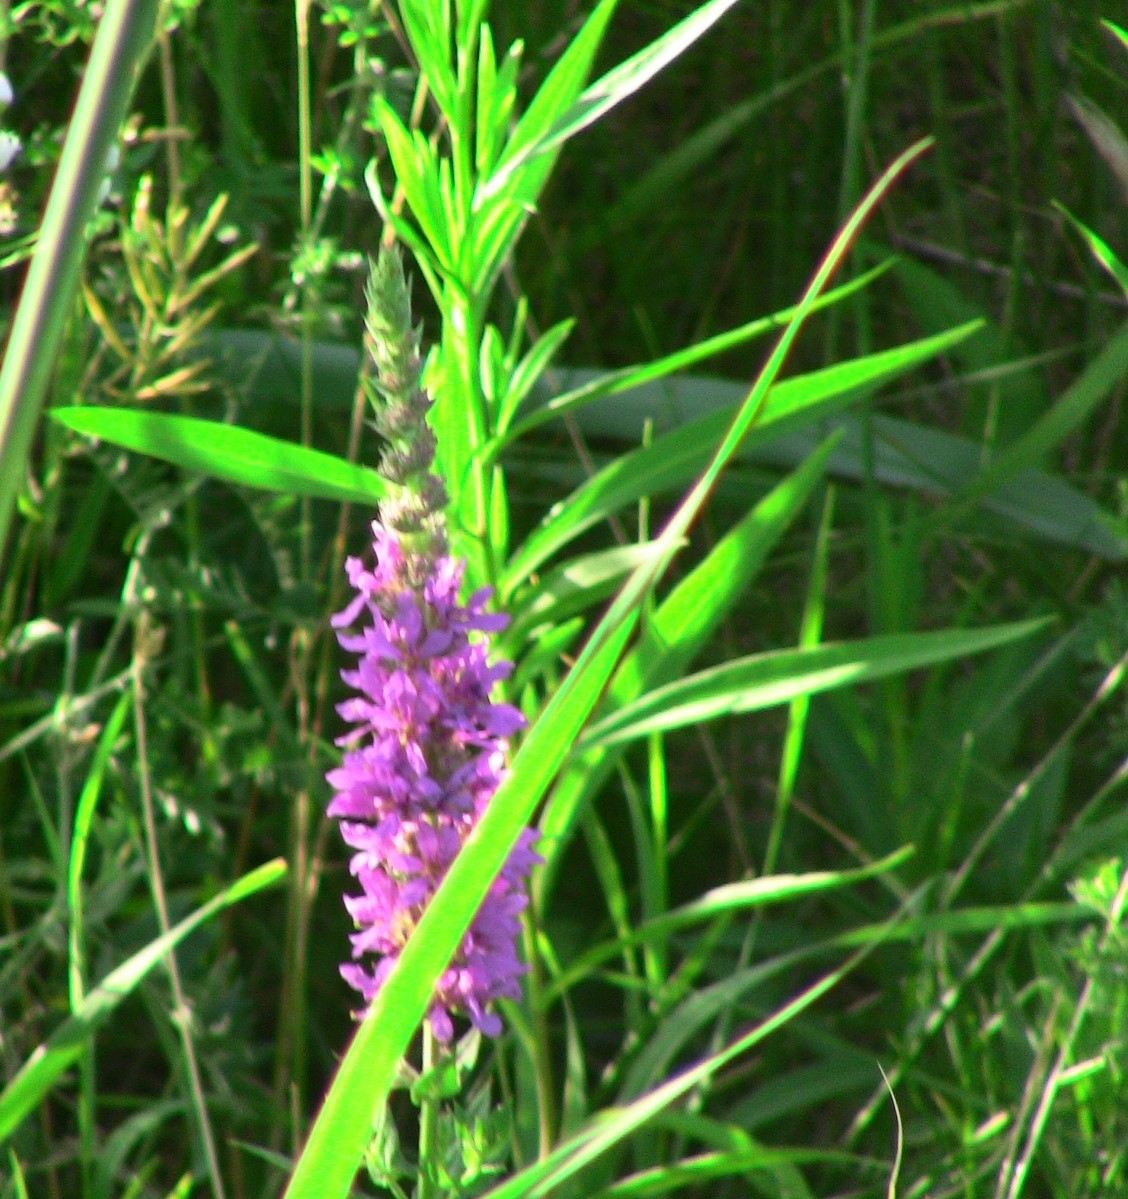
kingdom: Plantae
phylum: Tracheophyta
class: Magnoliopsida
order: Myrtales
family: Lythraceae
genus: Lythrum
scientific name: Lythrum salicaria
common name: Purple loosestrife
